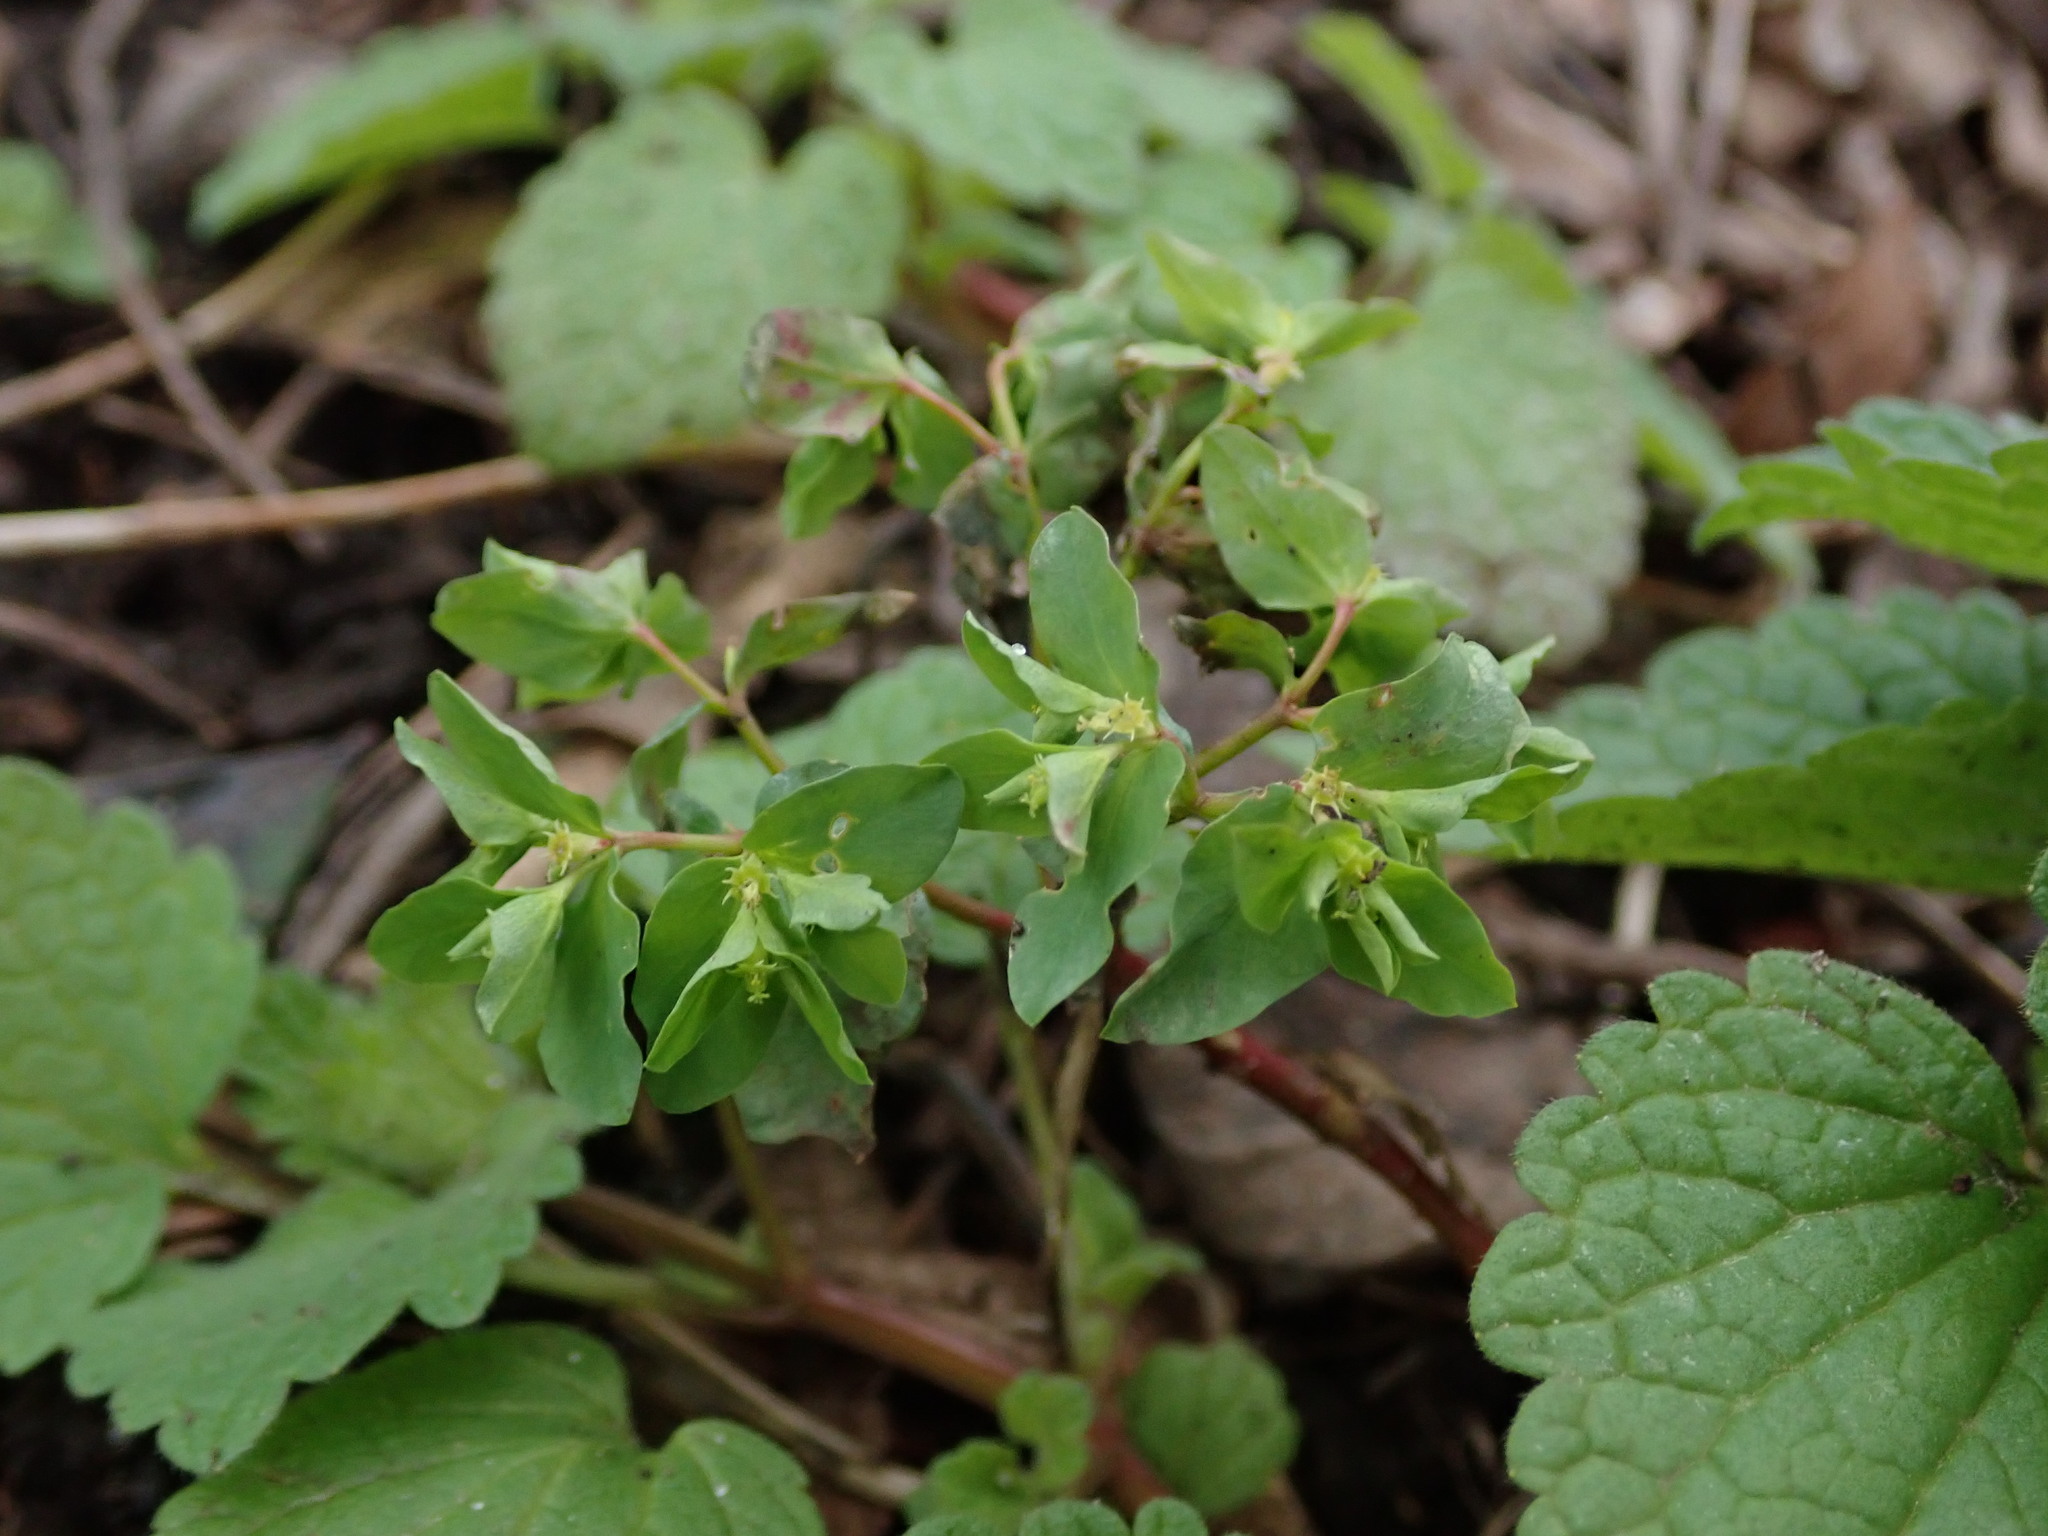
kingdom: Plantae
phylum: Tracheophyta
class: Magnoliopsida
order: Malpighiales
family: Euphorbiaceae
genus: Euphorbia
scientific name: Euphorbia peplus
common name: Petty spurge
